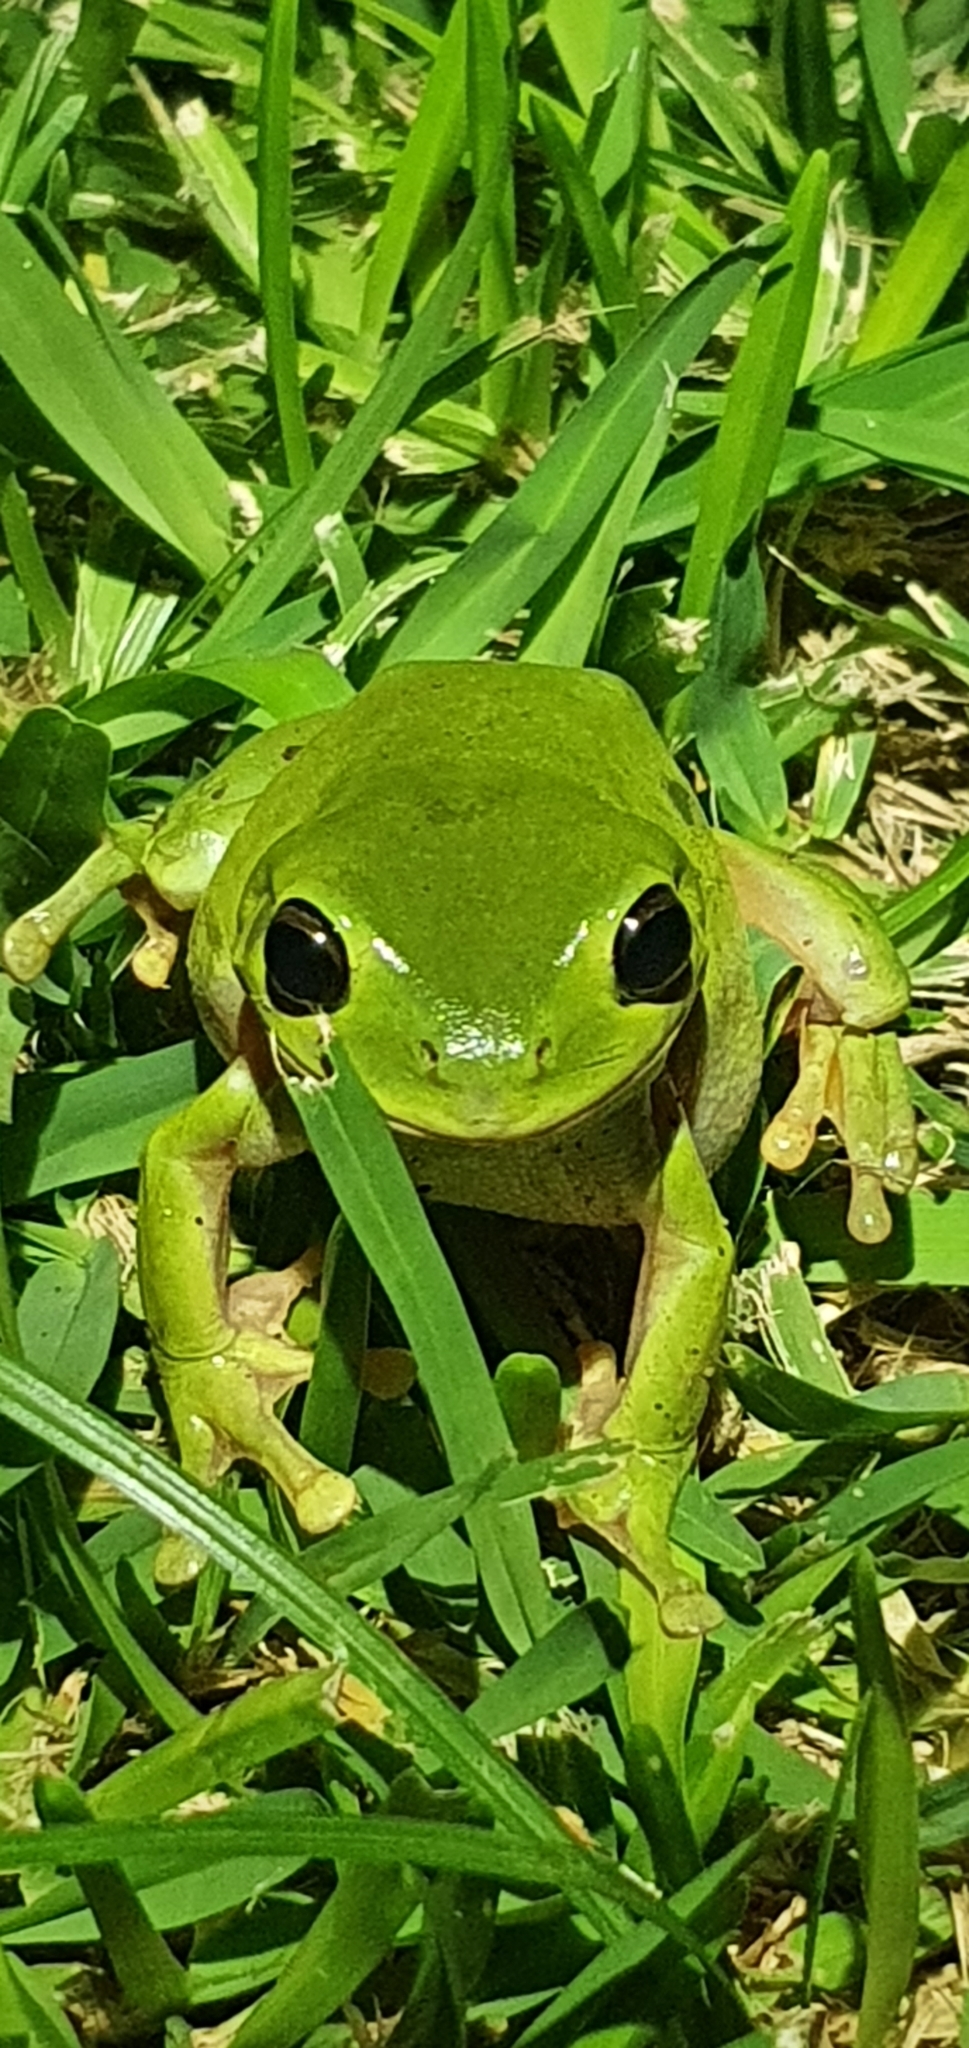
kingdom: Animalia
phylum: Chordata
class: Amphibia
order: Anura
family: Pelodryadidae
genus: Ranoidea
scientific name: Ranoidea caerulea
